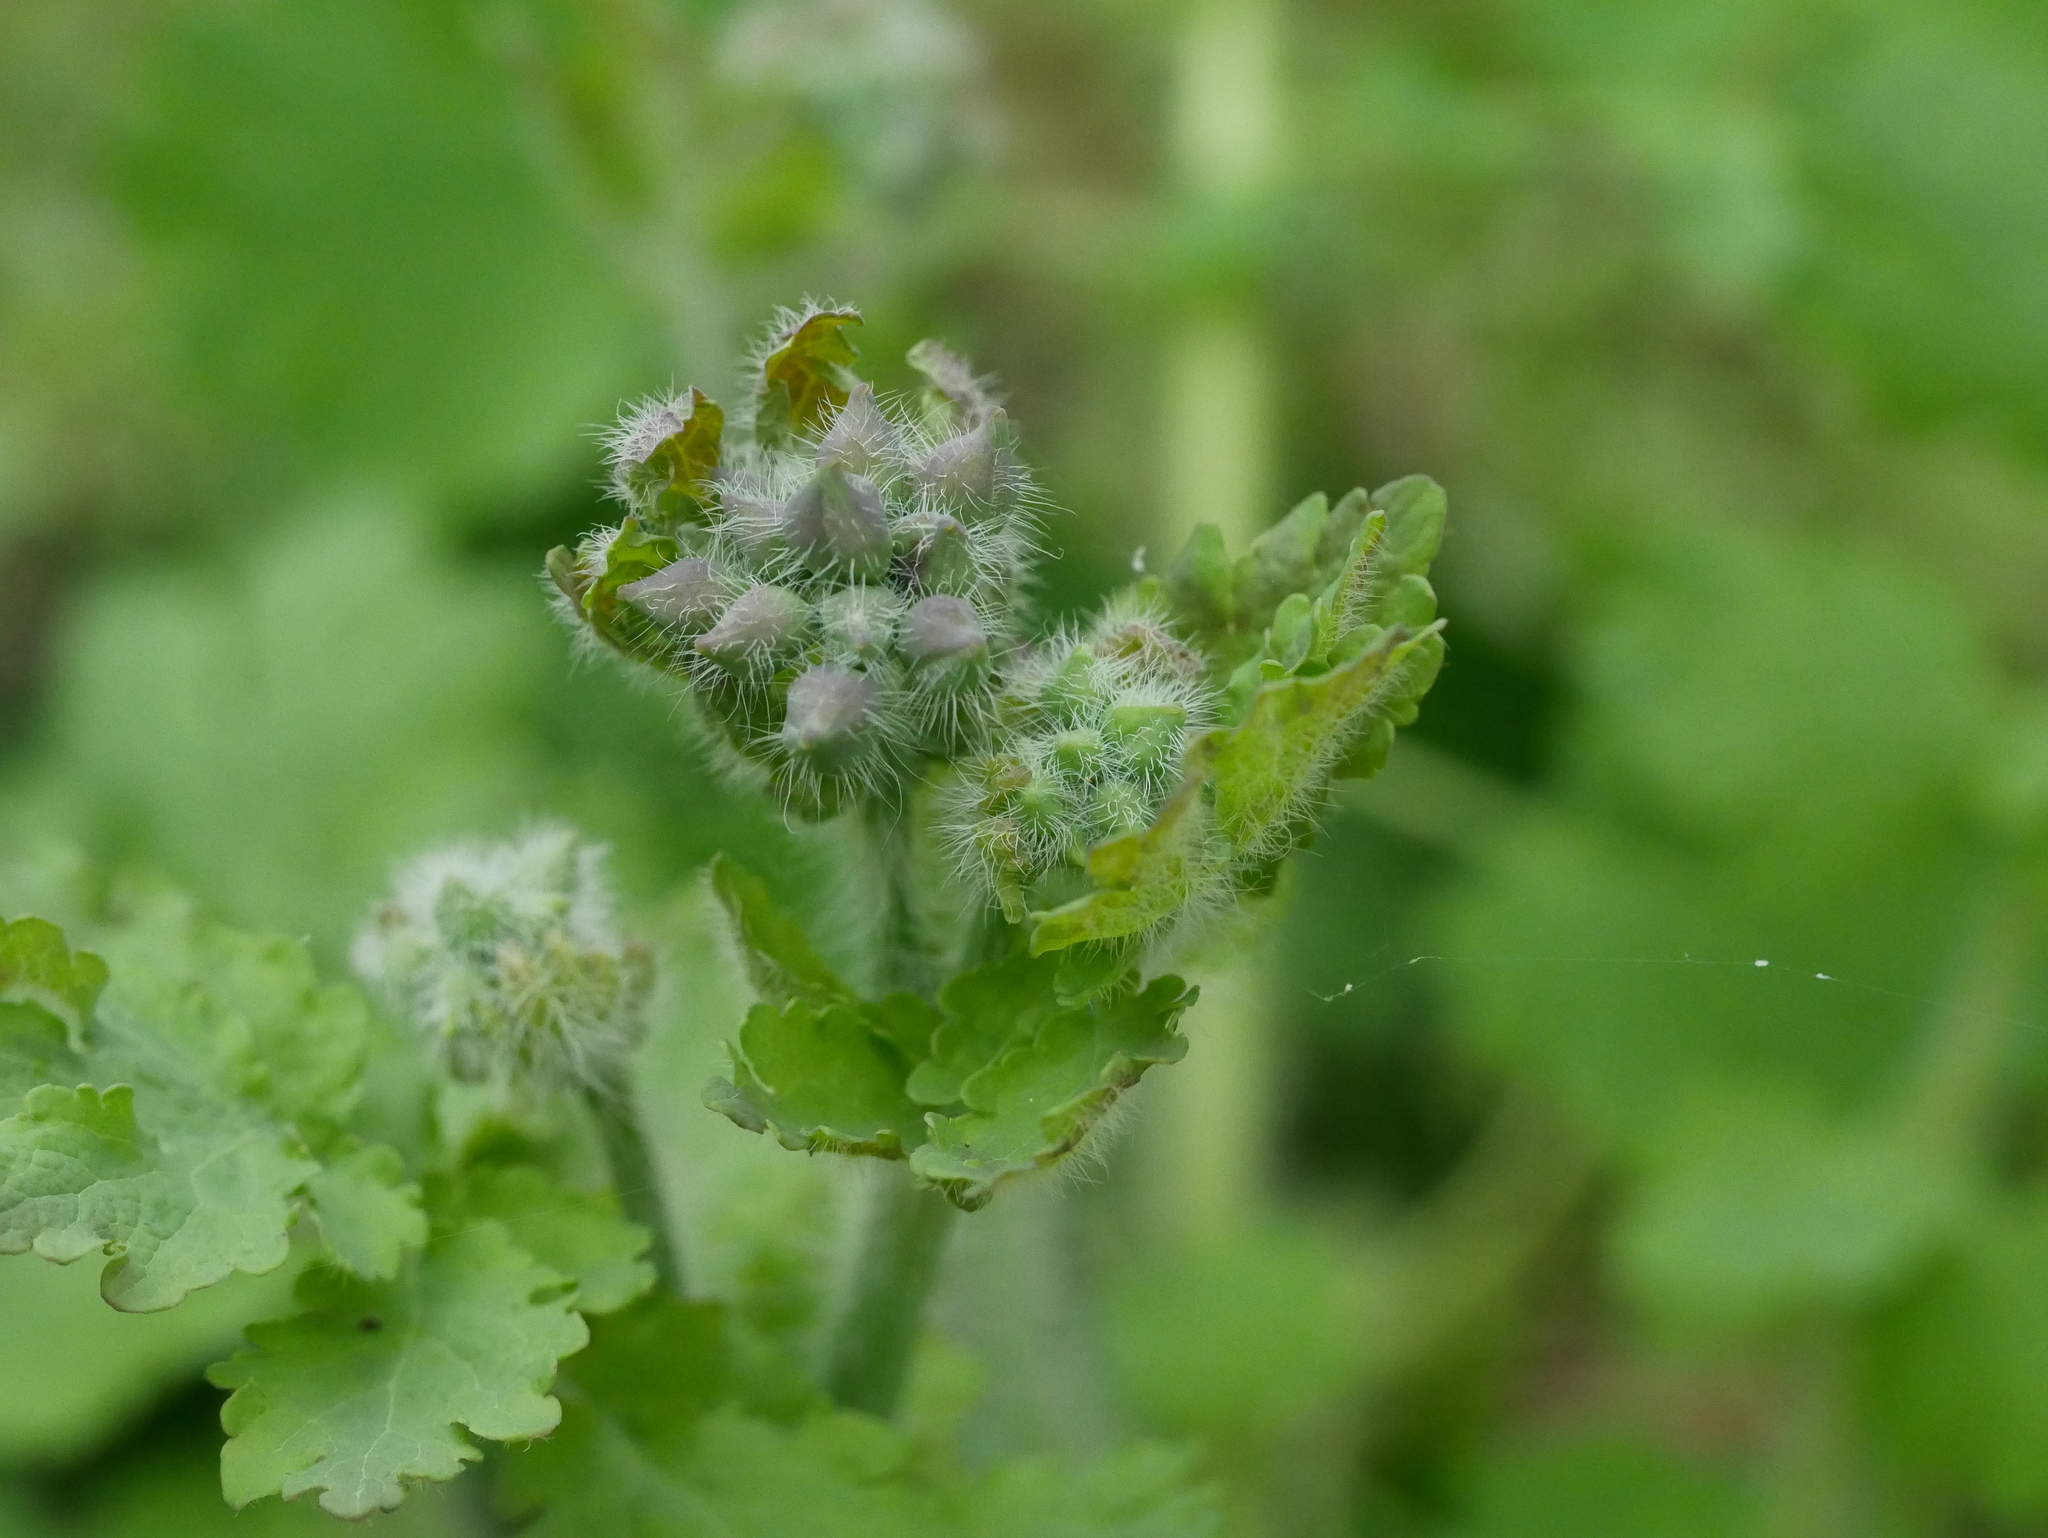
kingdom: Plantae
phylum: Tracheophyta
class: Magnoliopsida
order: Ranunculales
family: Papaveraceae
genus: Chelidonium
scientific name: Chelidonium majus
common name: Greater celandine
